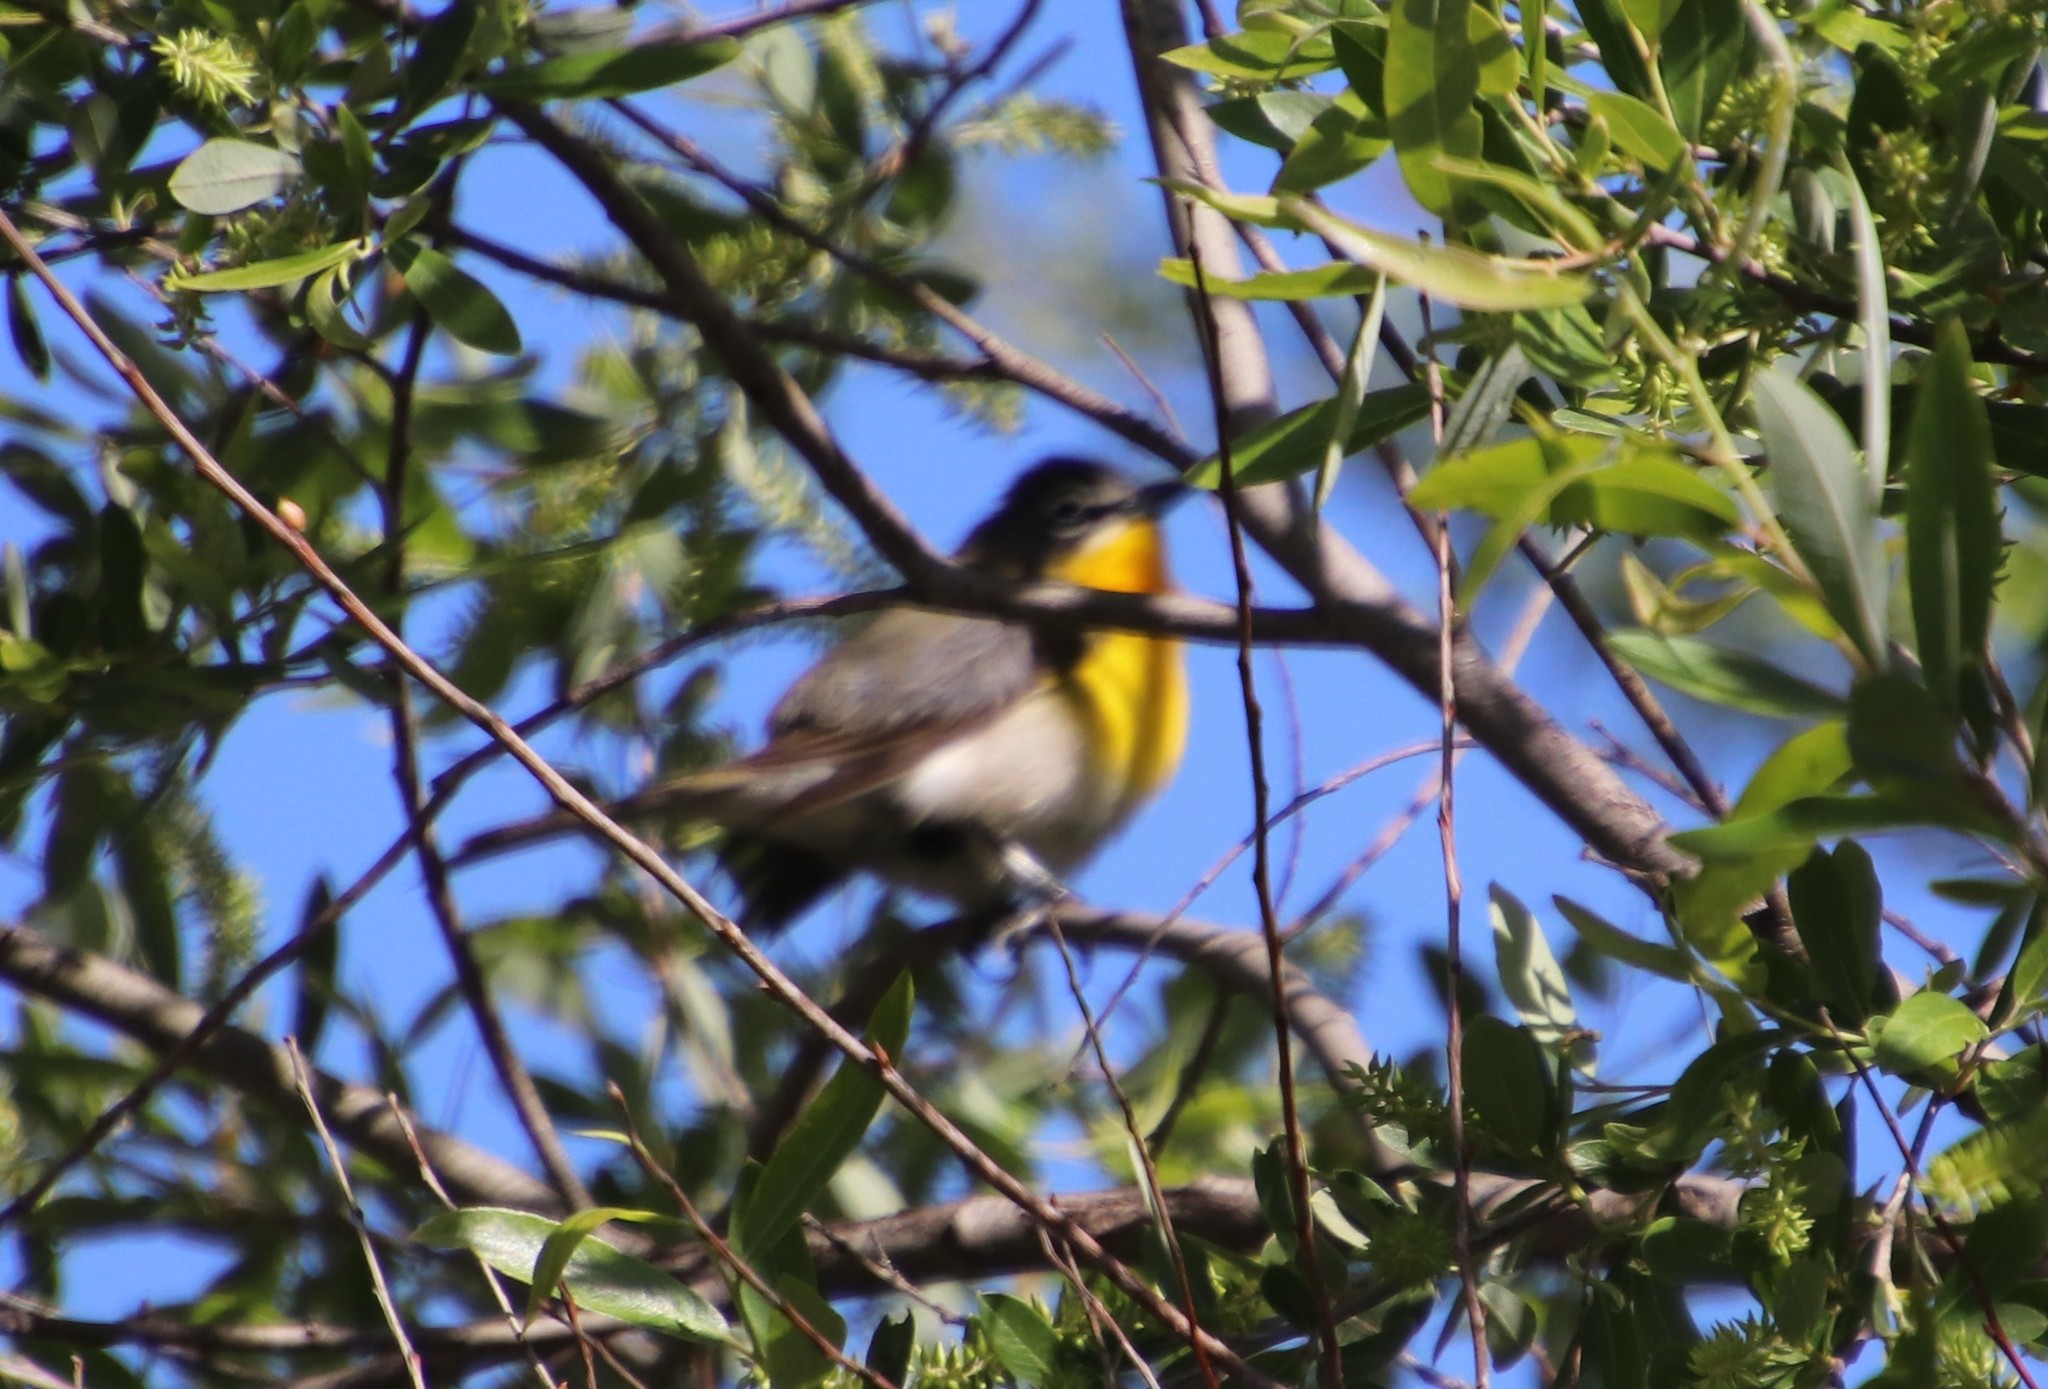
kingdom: Animalia
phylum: Chordata
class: Aves
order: Passeriformes
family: Parulidae
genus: Icteria
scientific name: Icteria virens
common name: Yellow-breasted chat
